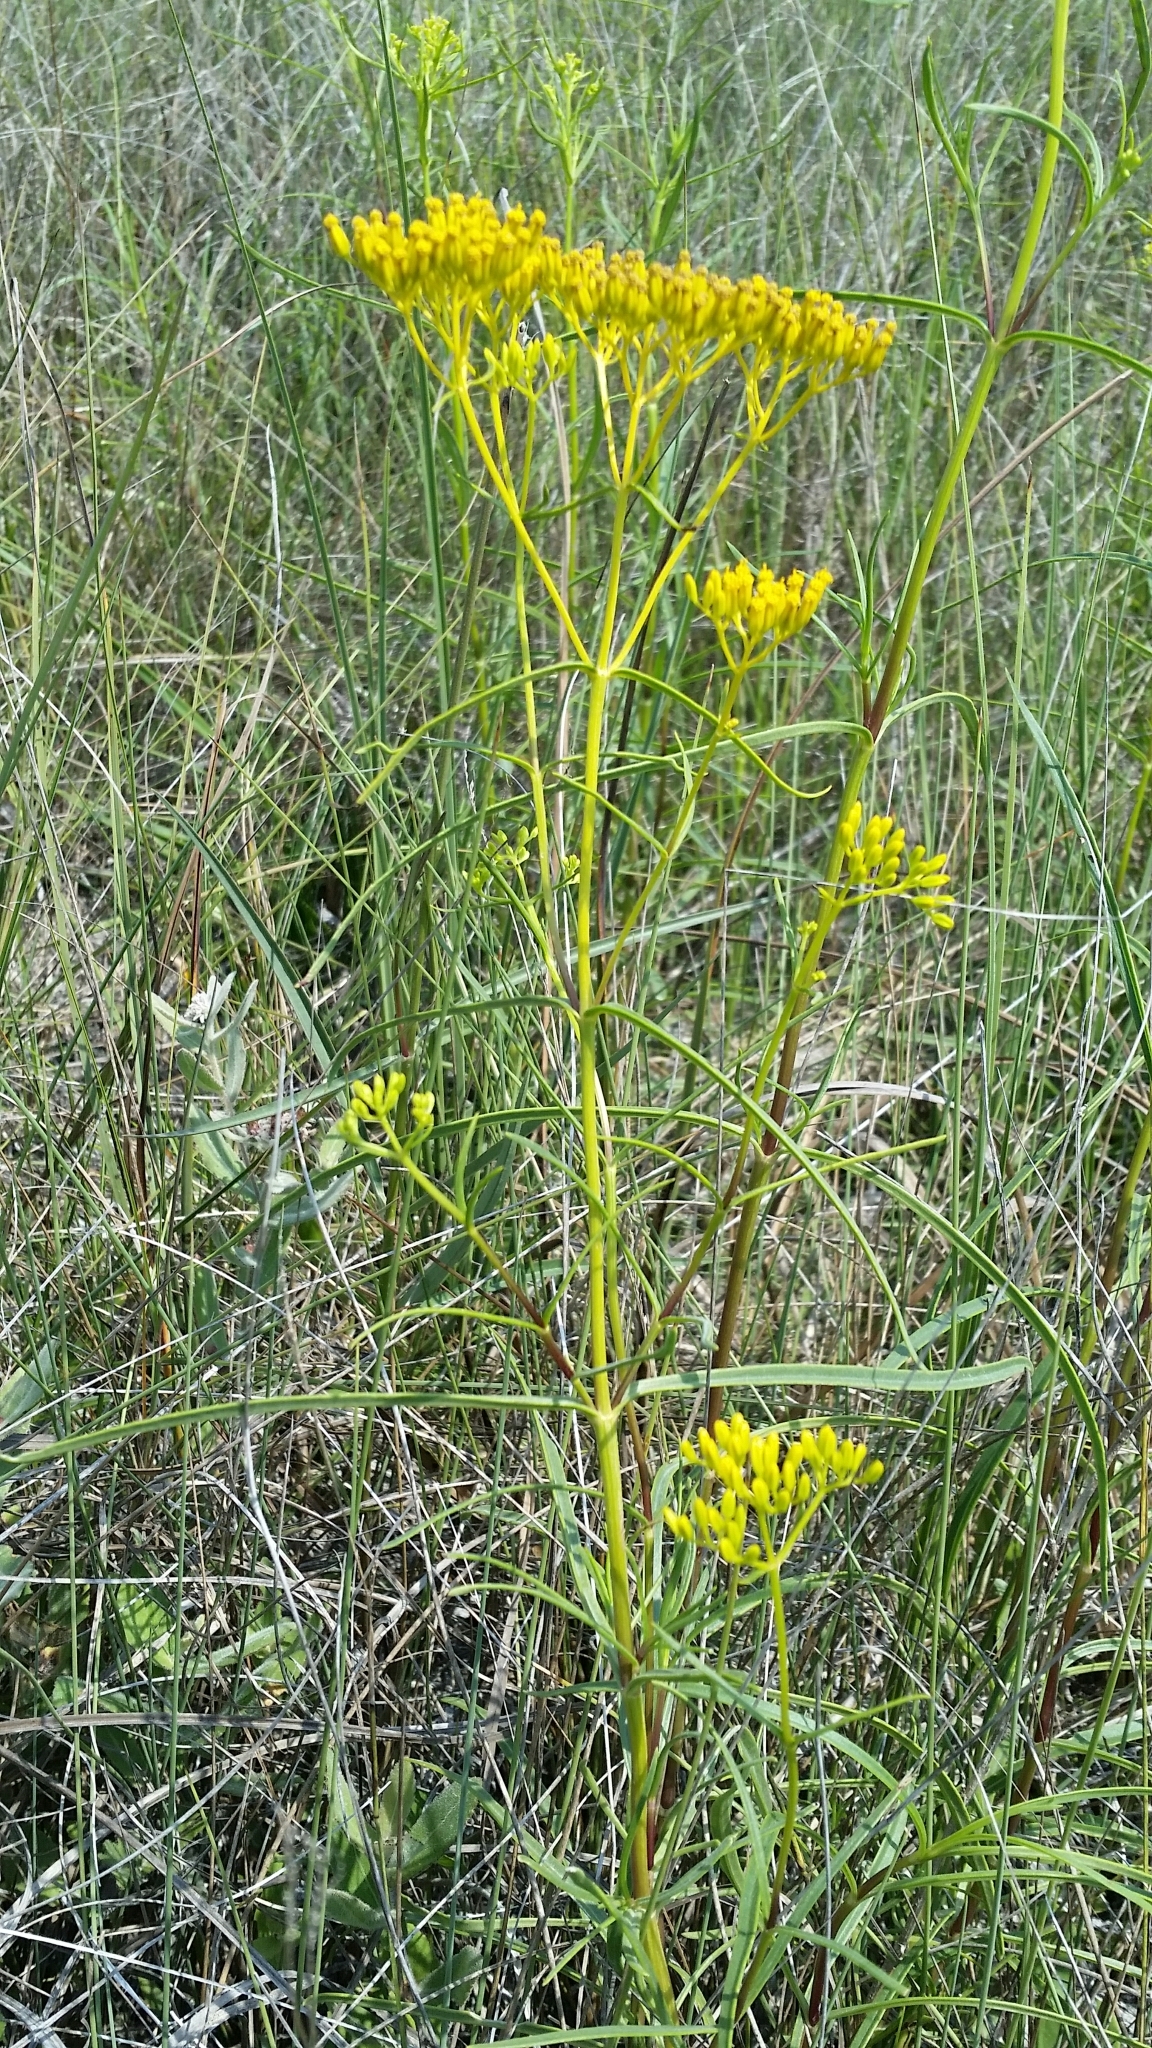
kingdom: Plantae
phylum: Tracheophyta
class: Magnoliopsida
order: Asterales
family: Asteraceae
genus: Flaveria
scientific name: Flaveria linearis
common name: Yellowtop
